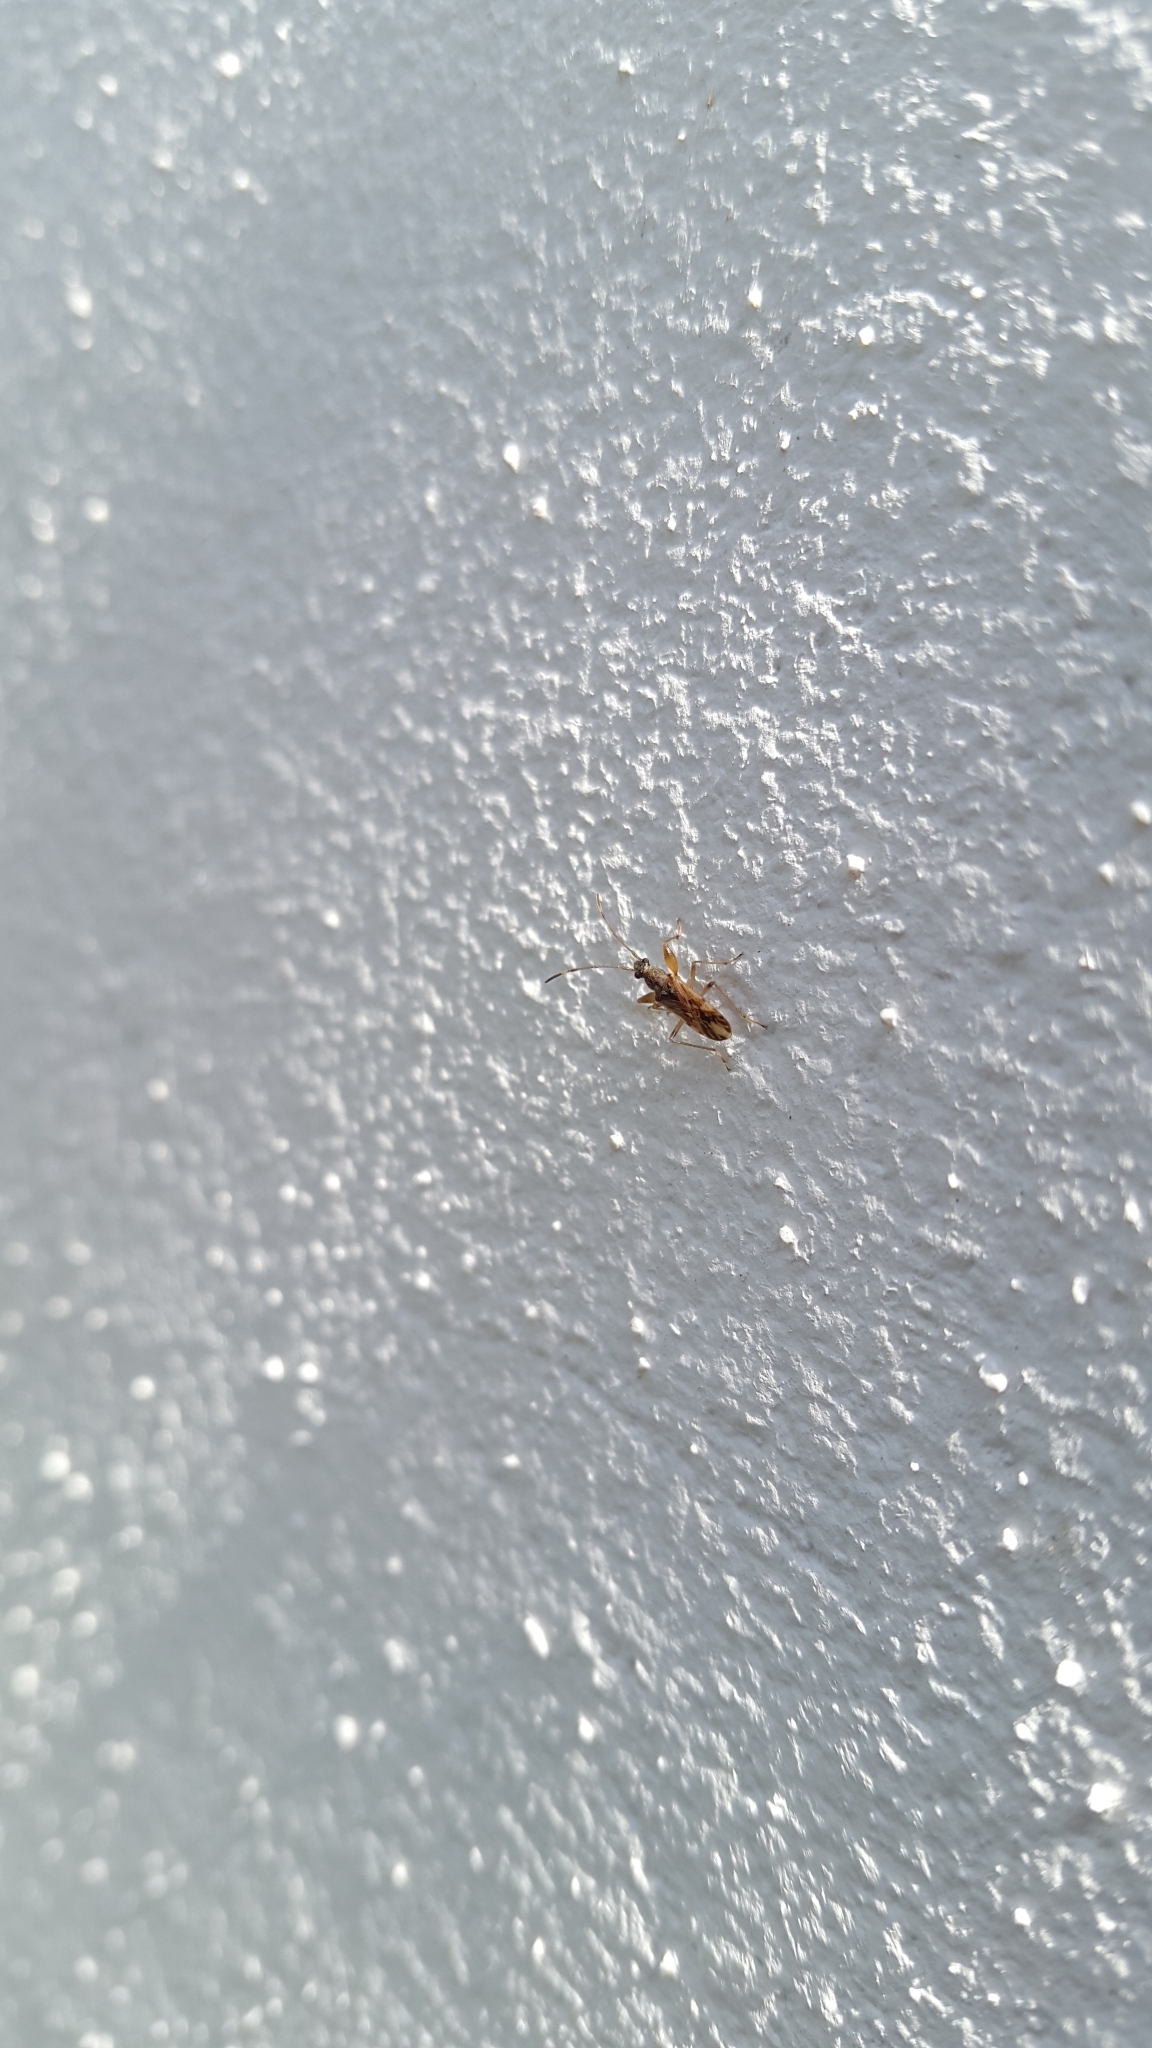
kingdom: Animalia
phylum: Arthropoda
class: Insecta
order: Hemiptera
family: Rhyparochromidae
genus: Neopamera
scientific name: Neopamera albocincta
